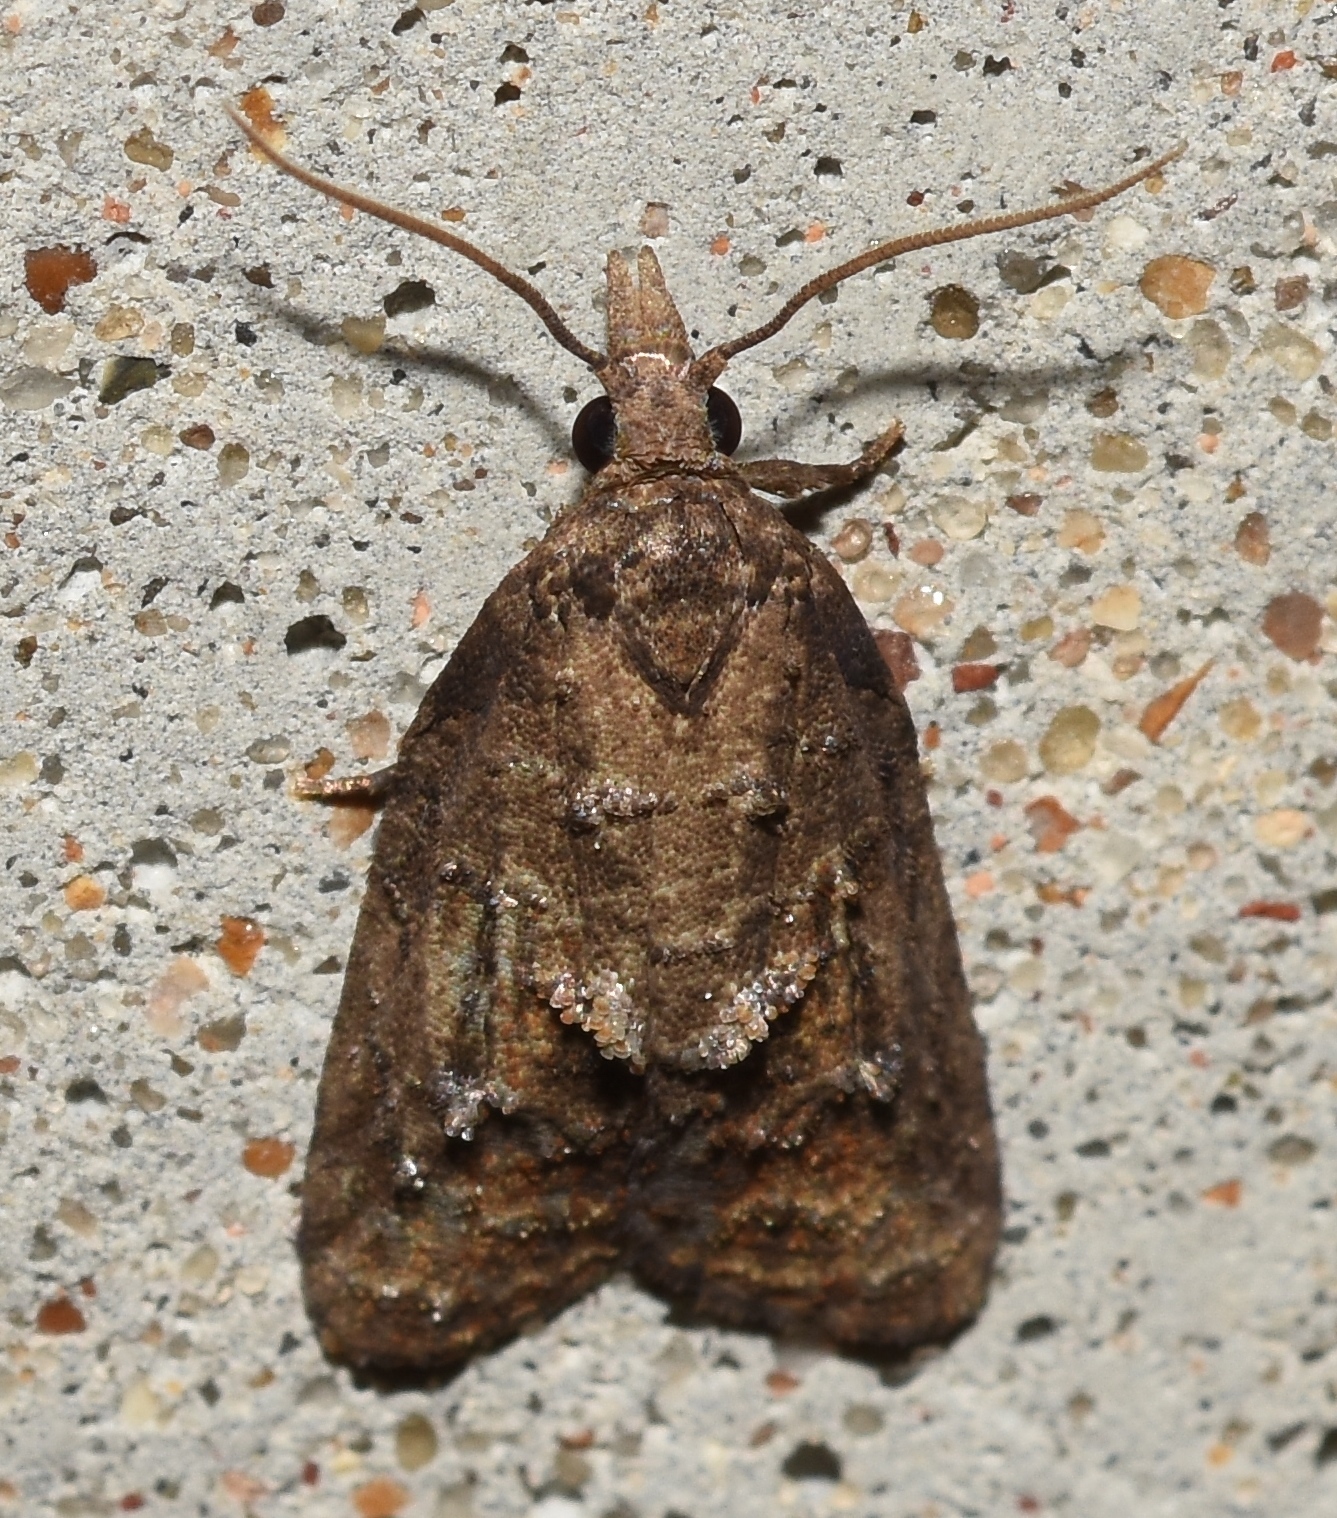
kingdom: Animalia
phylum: Arthropoda
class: Insecta
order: Lepidoptera
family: Tortricidae
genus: Platynota
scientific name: Platynota idaeusalis
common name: Tufted apple bud moth
